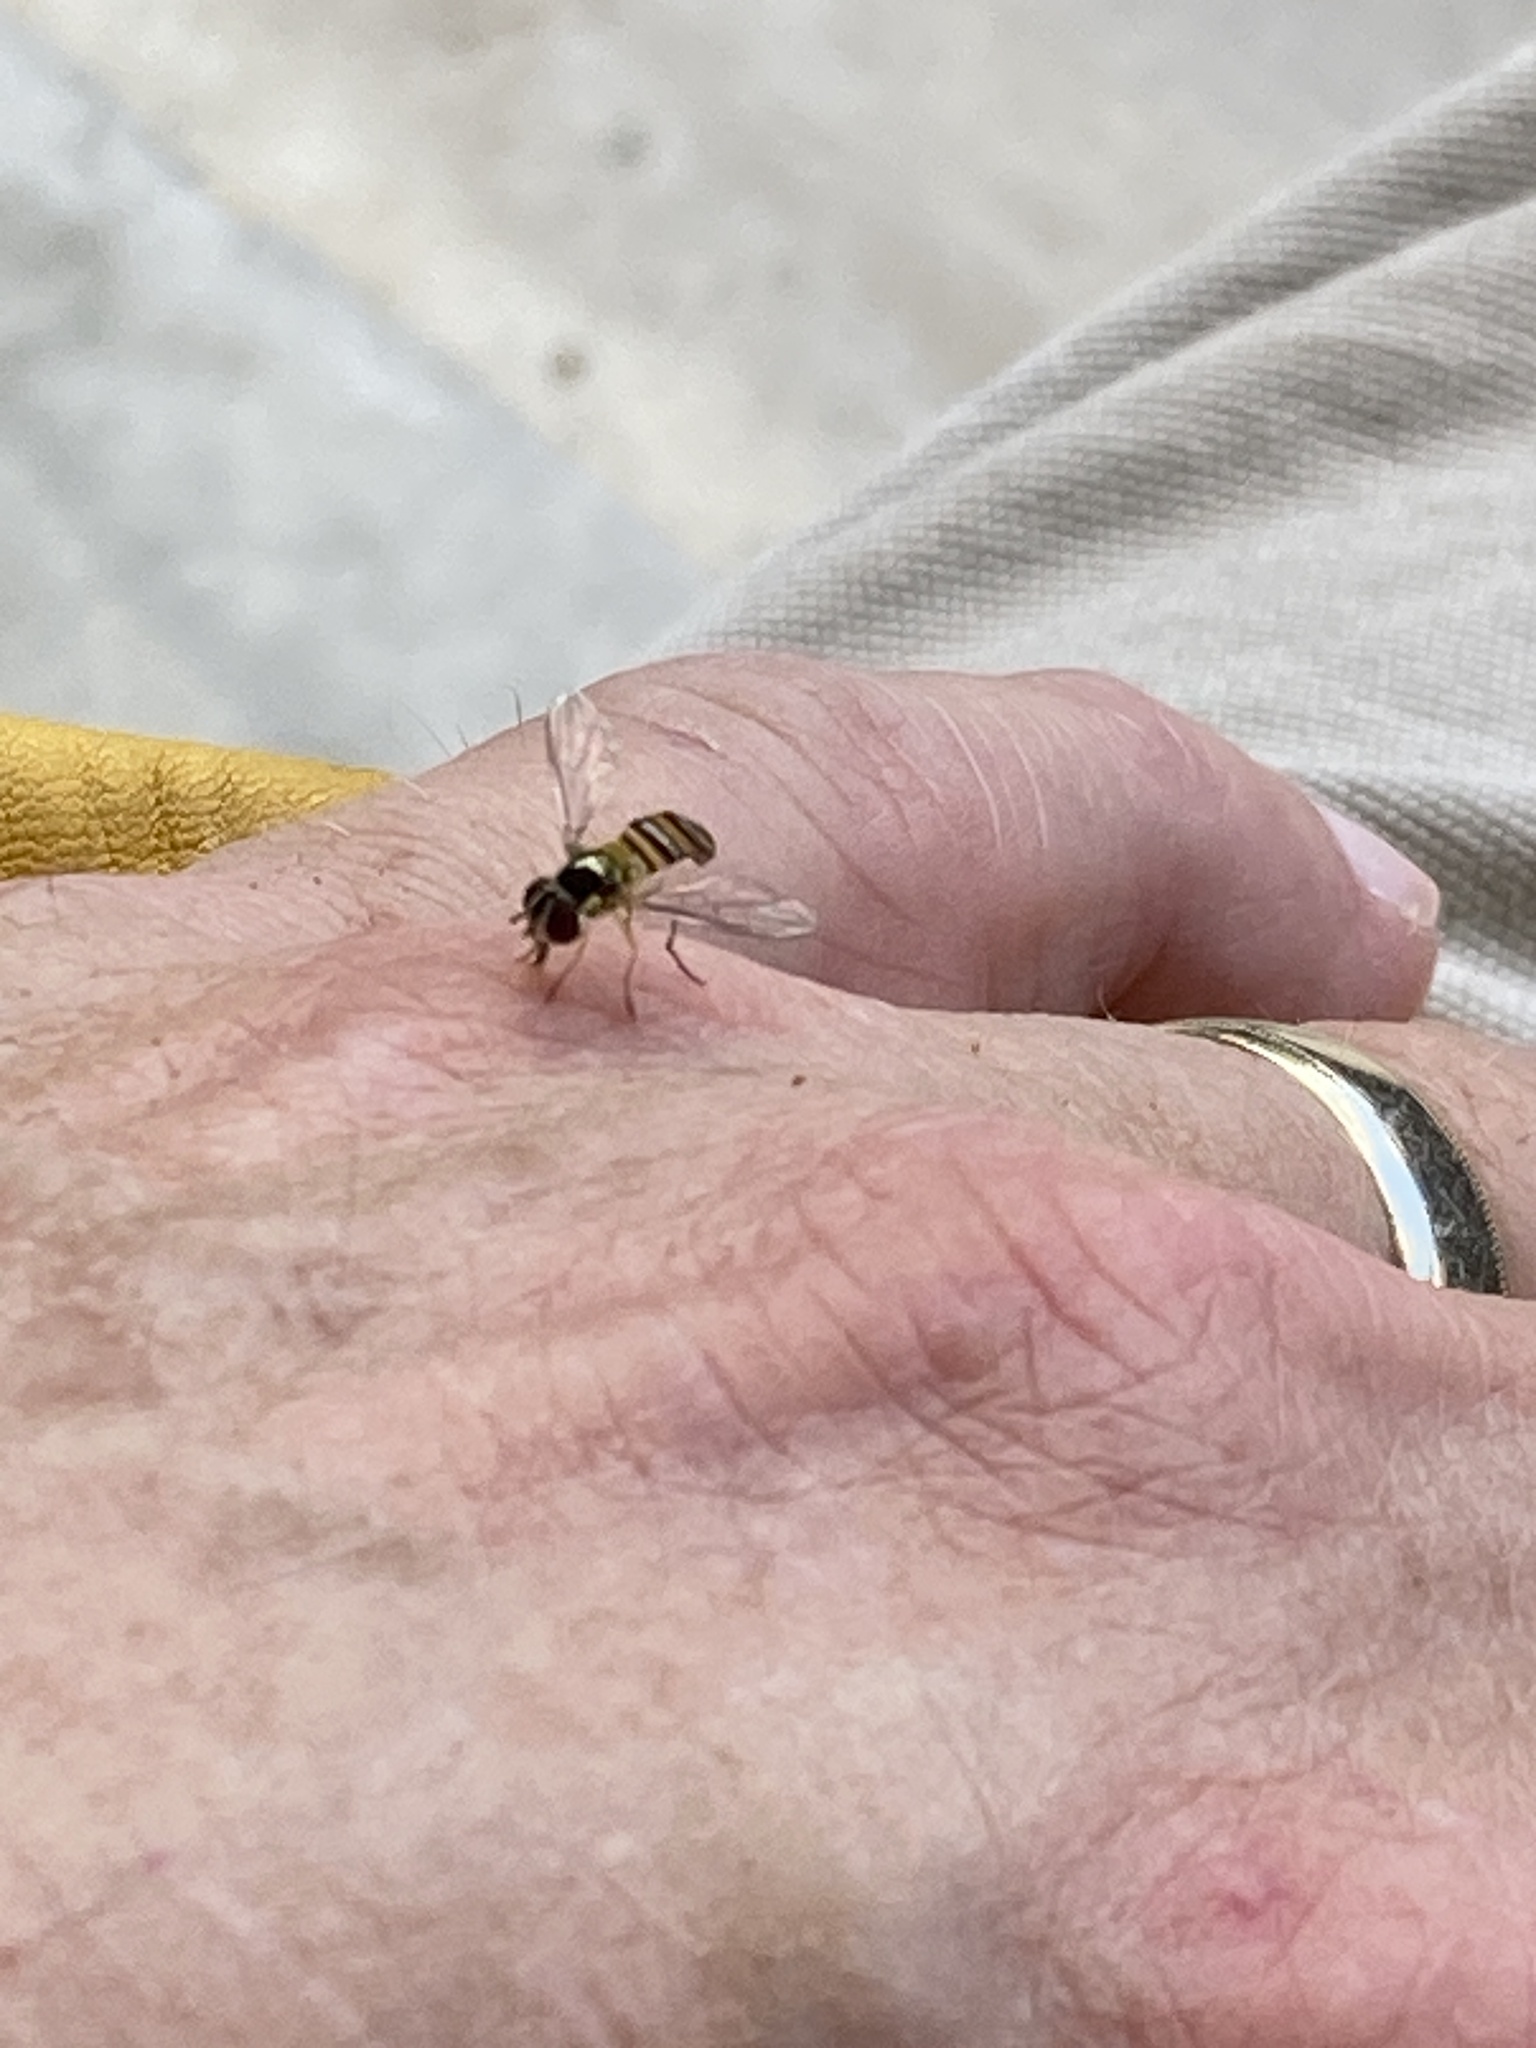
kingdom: Animalia
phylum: Arthropoda
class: Insecta
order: Diptera
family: Syrphidae
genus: Allograpta
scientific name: Allograpta obliqua
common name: Common oblique syrphid
